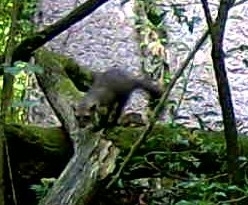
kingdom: Animalia
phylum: Chordata
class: Mammalia
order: Carnivora
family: Mustelidae
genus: Martes
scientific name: Martes foina
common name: Beech marten
